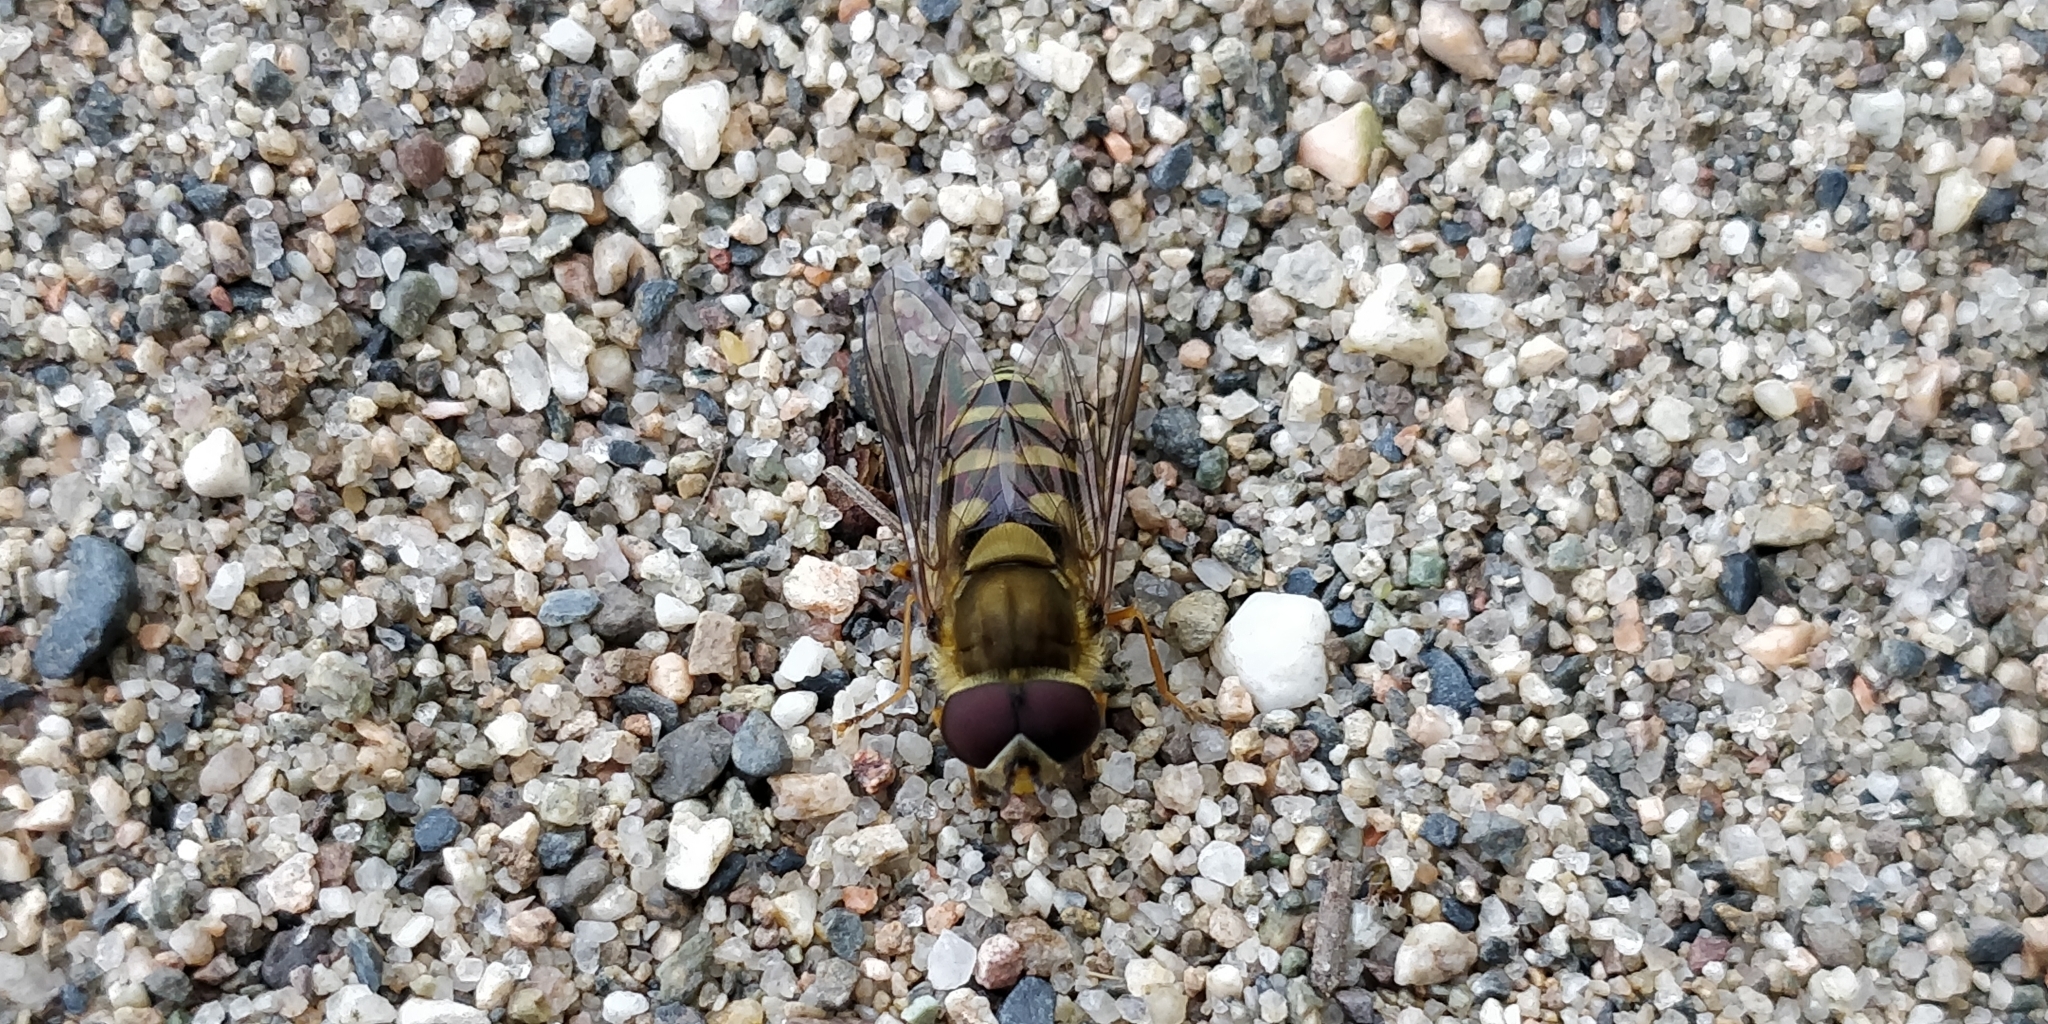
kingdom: Animalia
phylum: Arthropoda
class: Insecta
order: Diptera
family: Syrphidae
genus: Syrphus
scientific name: Syrphus
